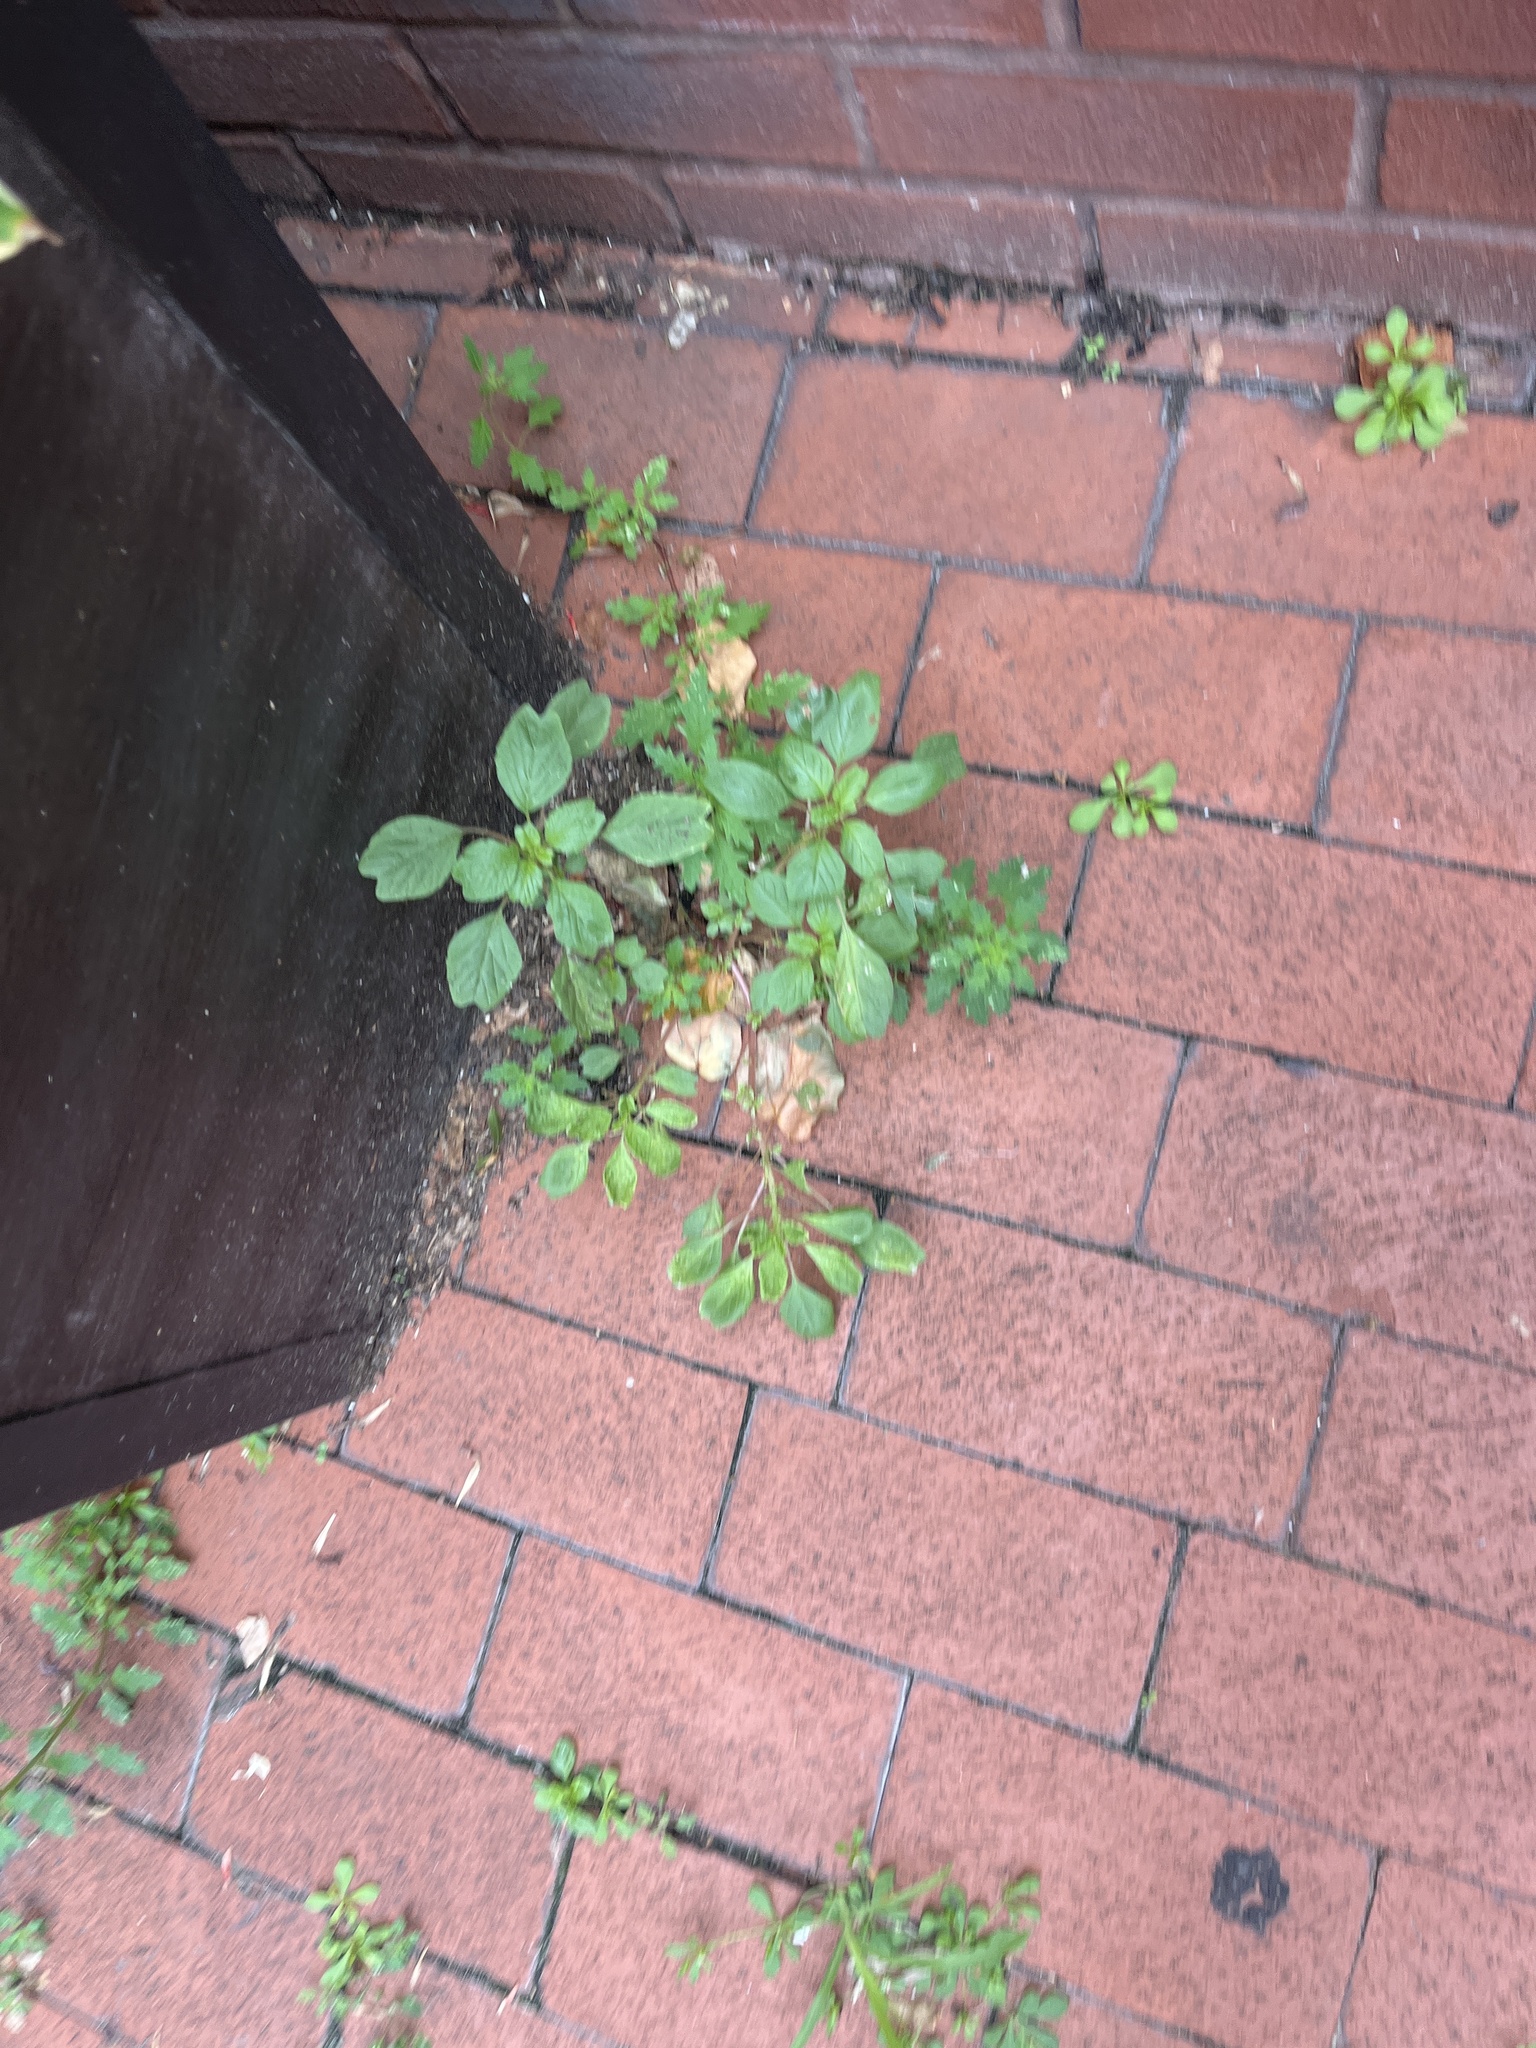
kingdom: Plantae
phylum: Tracheophyta
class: Magnoliopsida
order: Caryophyllales
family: Amaranthaceae
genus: Amaranthus
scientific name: Amaranthus blitum
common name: Purple amaranth
